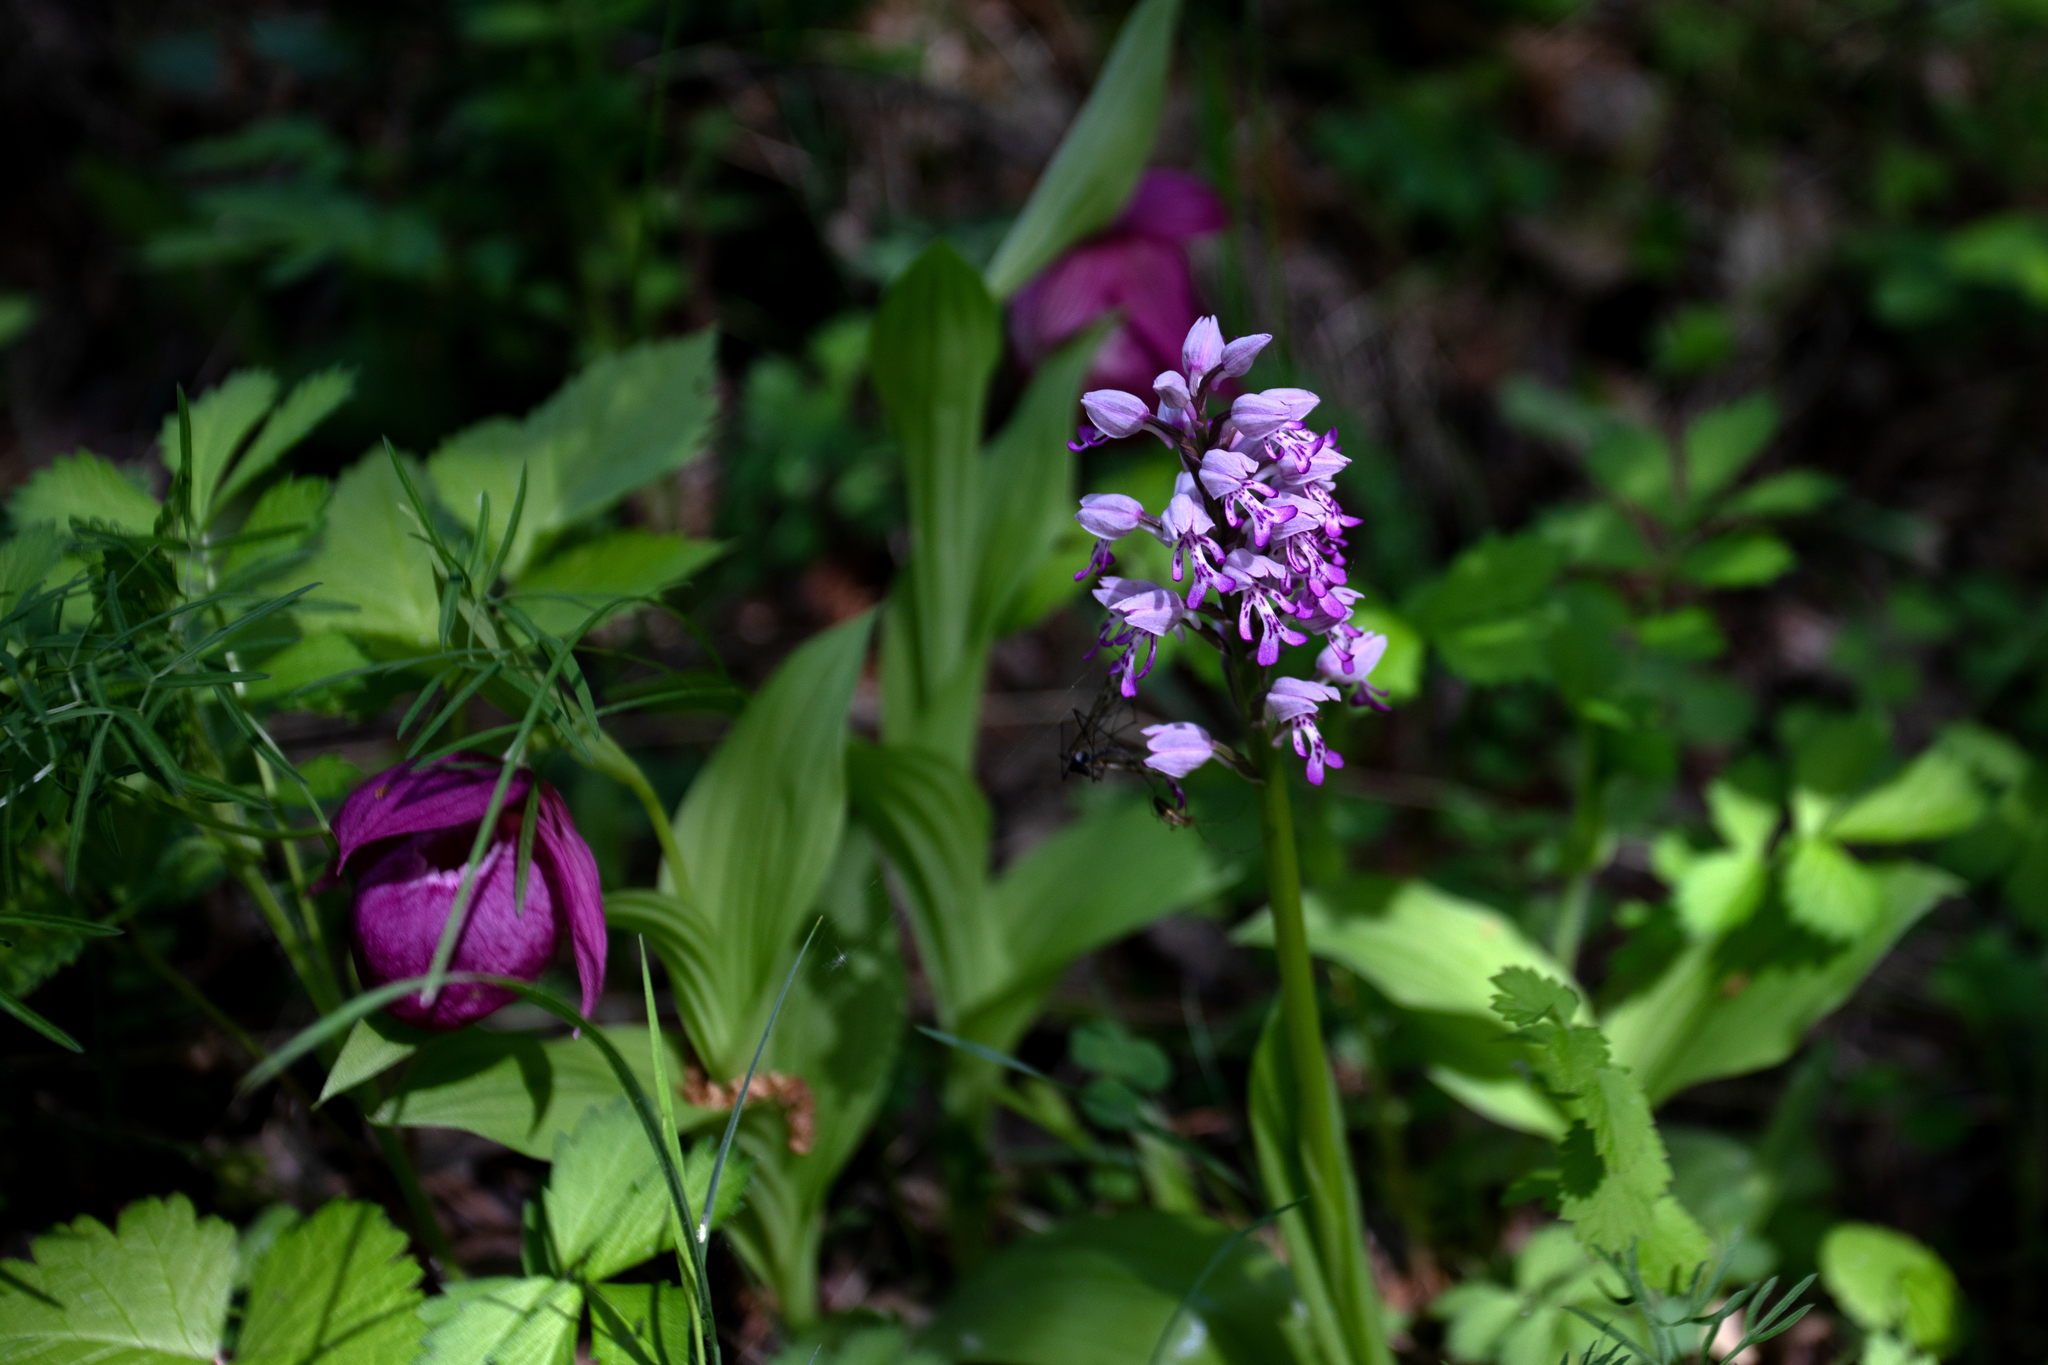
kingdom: Plantae
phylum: Tracheophyta
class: Liliopsida
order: Asparagales
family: Orchidaceae
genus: Orchis
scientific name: Orchis militaris
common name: Military orchid
